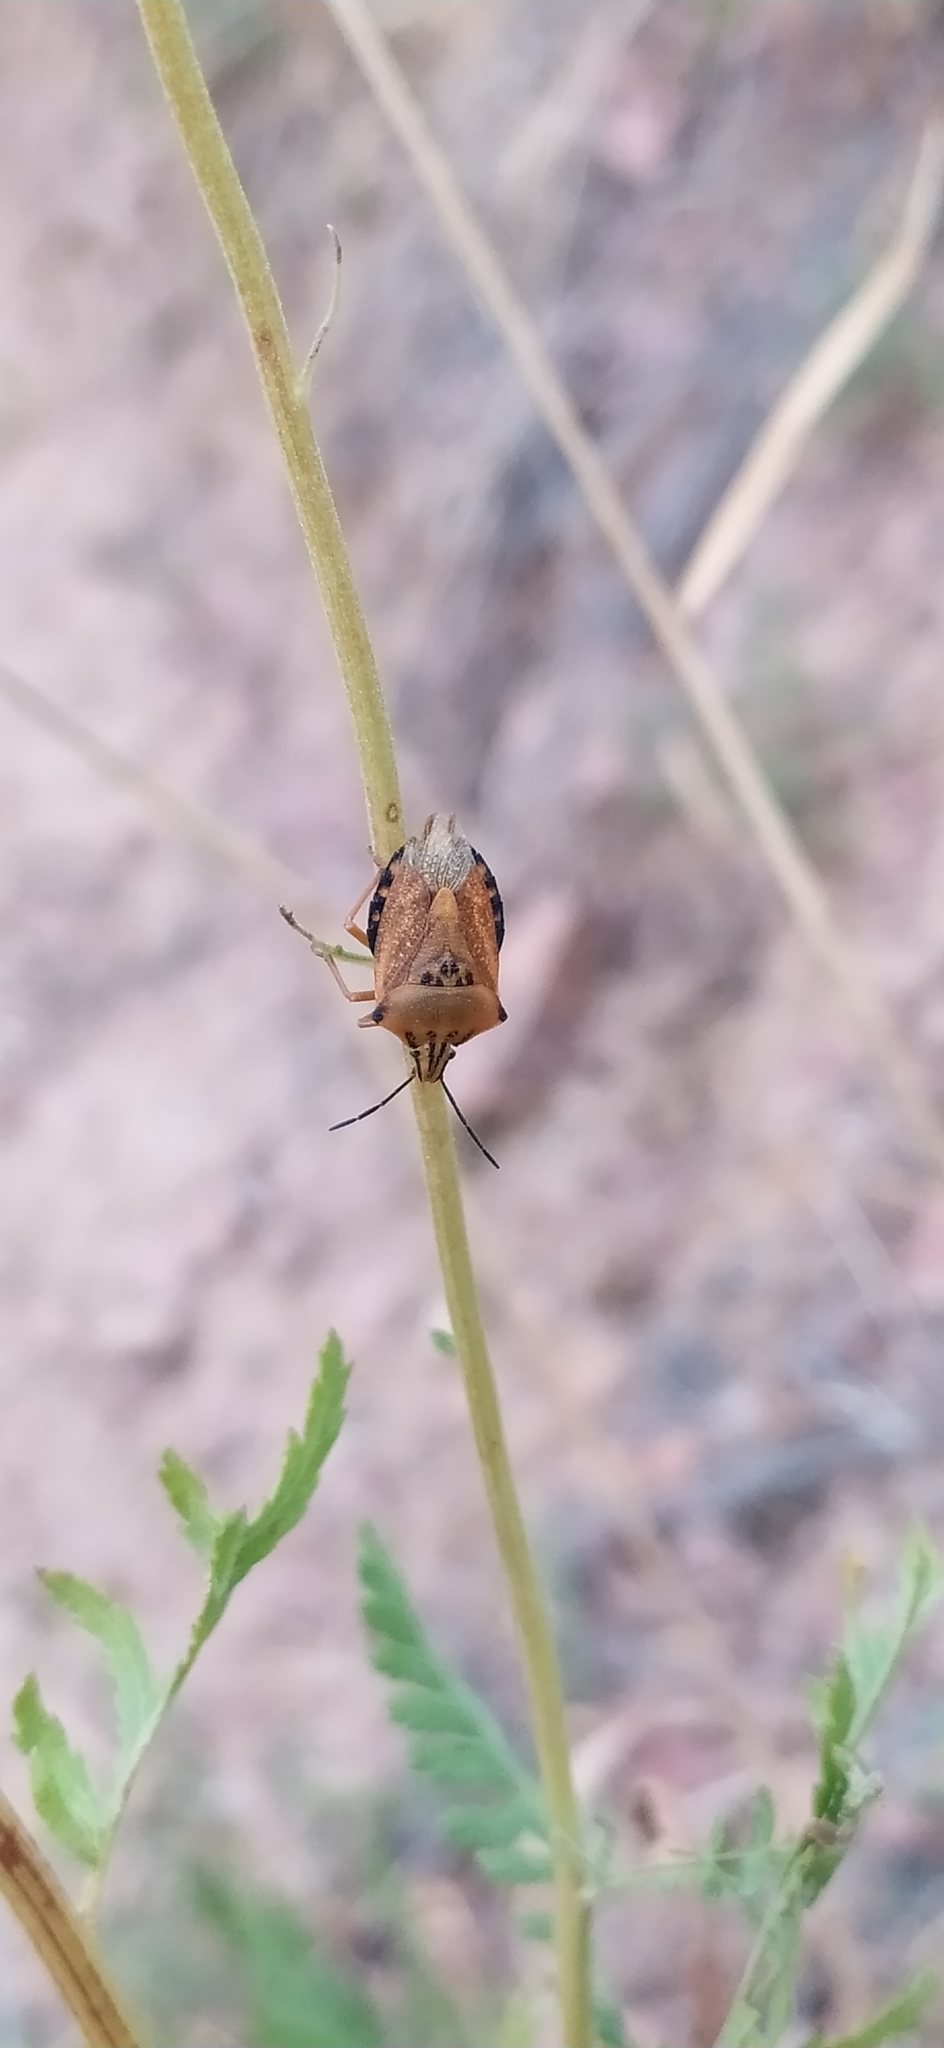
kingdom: Animalia
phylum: Arthropoda
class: Insecta
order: Hemiptera
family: Pentatomidae
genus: Carpocoris
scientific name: Carpocoris coreanus
